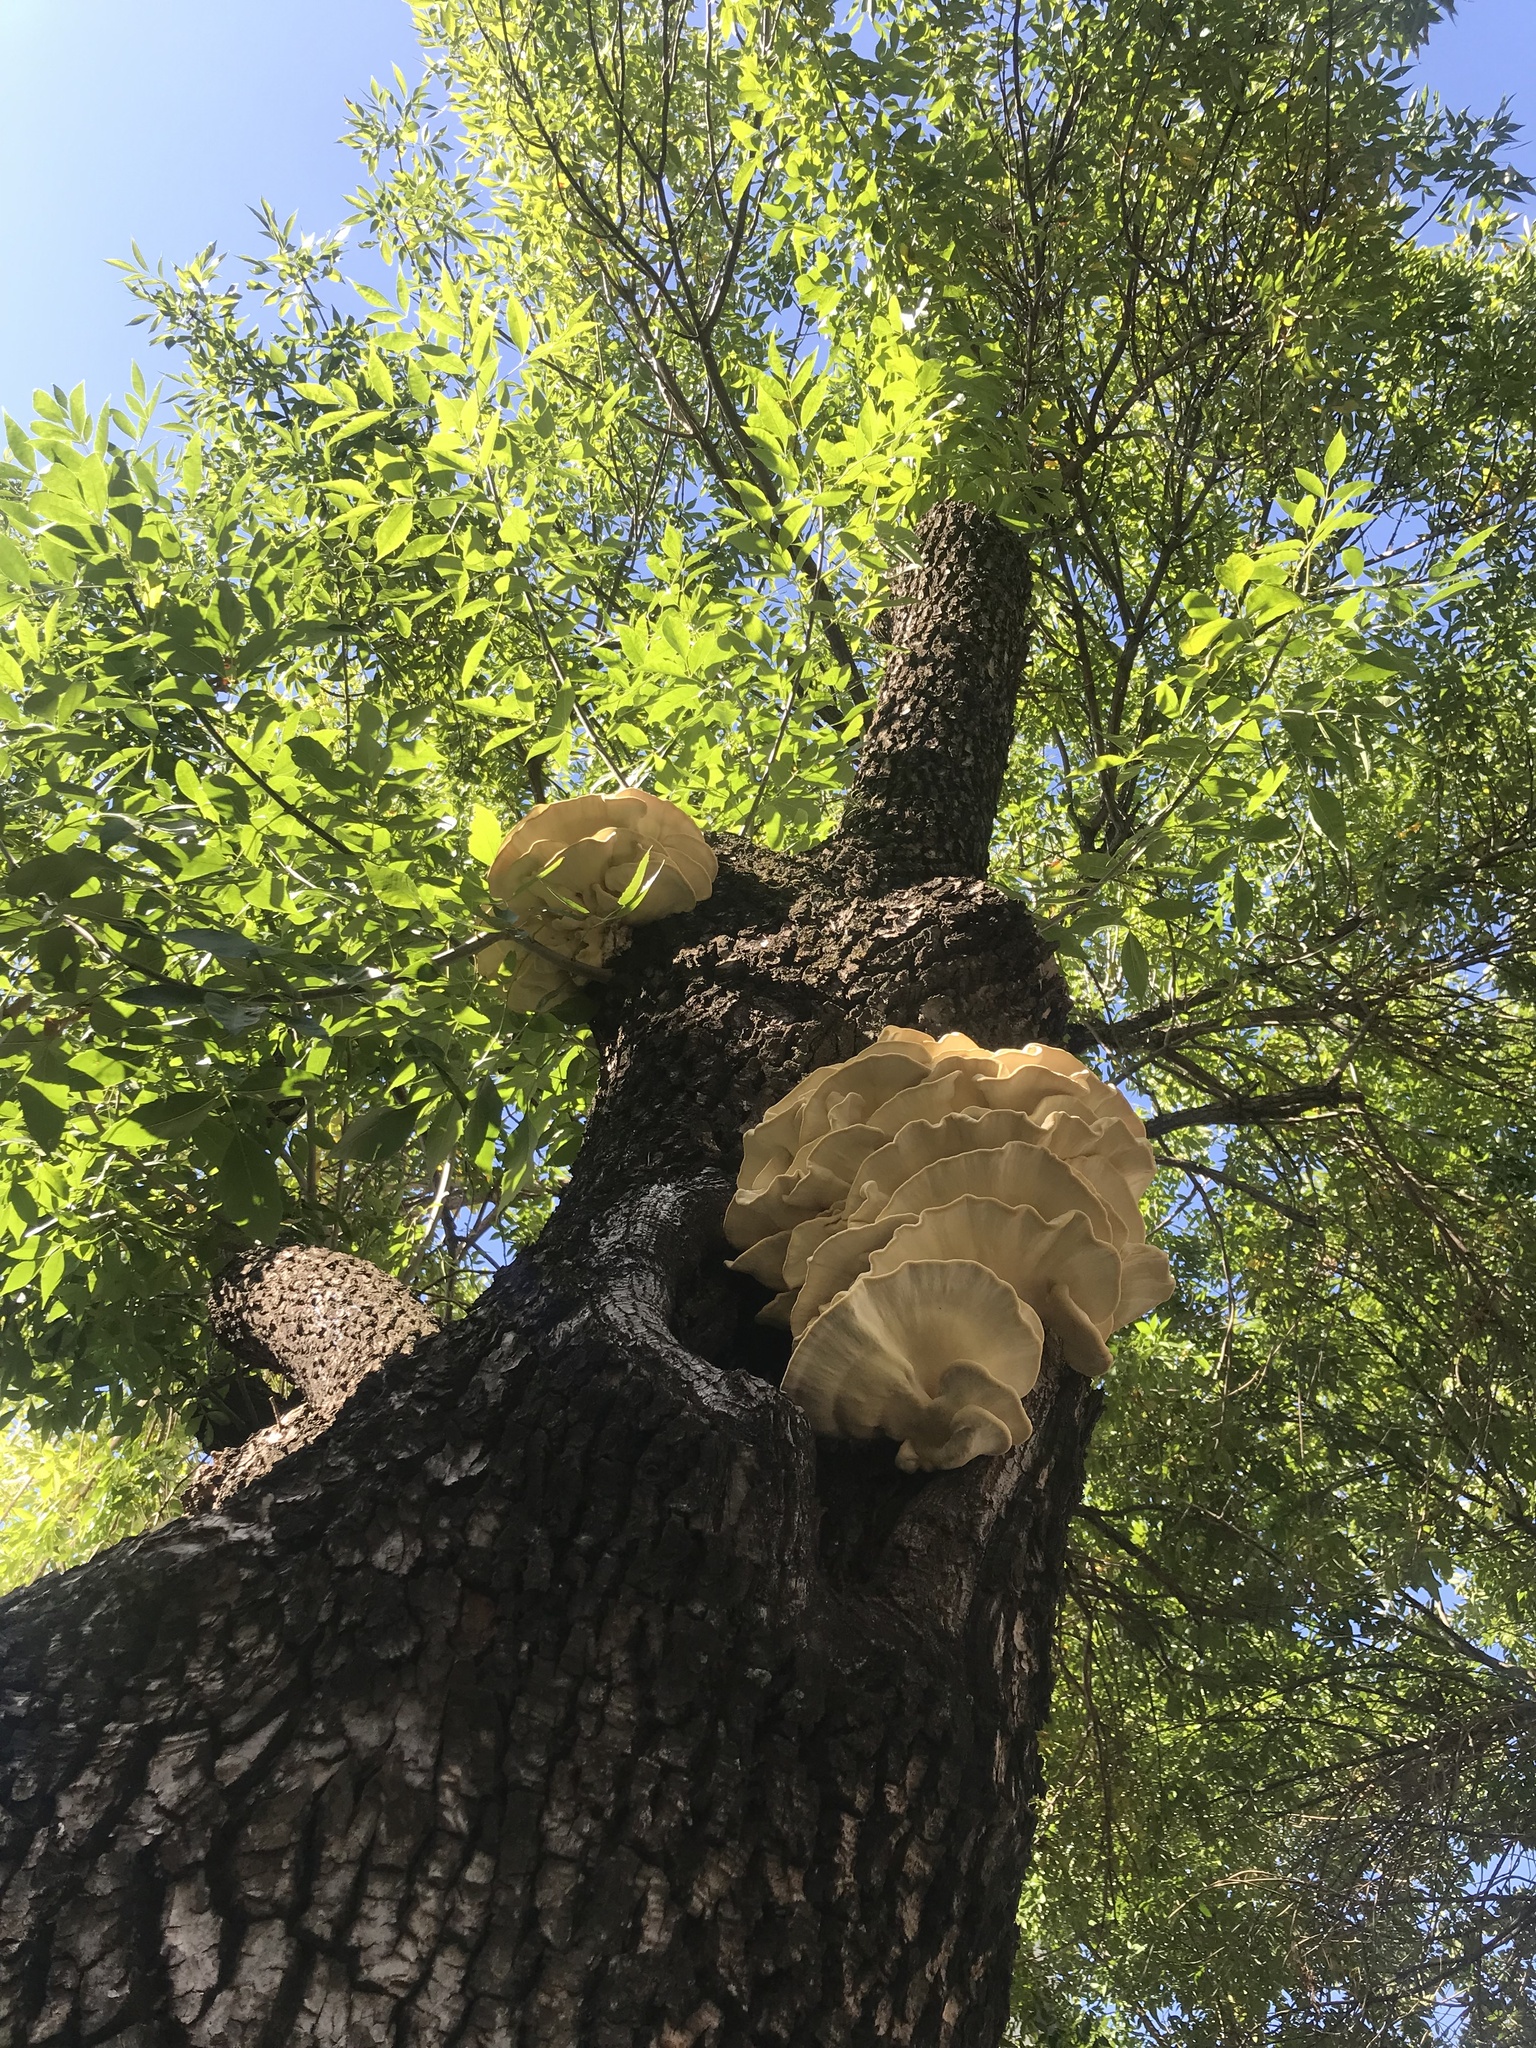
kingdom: Fungi
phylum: Basidiomycota
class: Agaricomycetes
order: Polyporales
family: Laetiporaceae
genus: Laetiporus
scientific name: Laetiporus sulphureus
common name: Chicken of the woods
